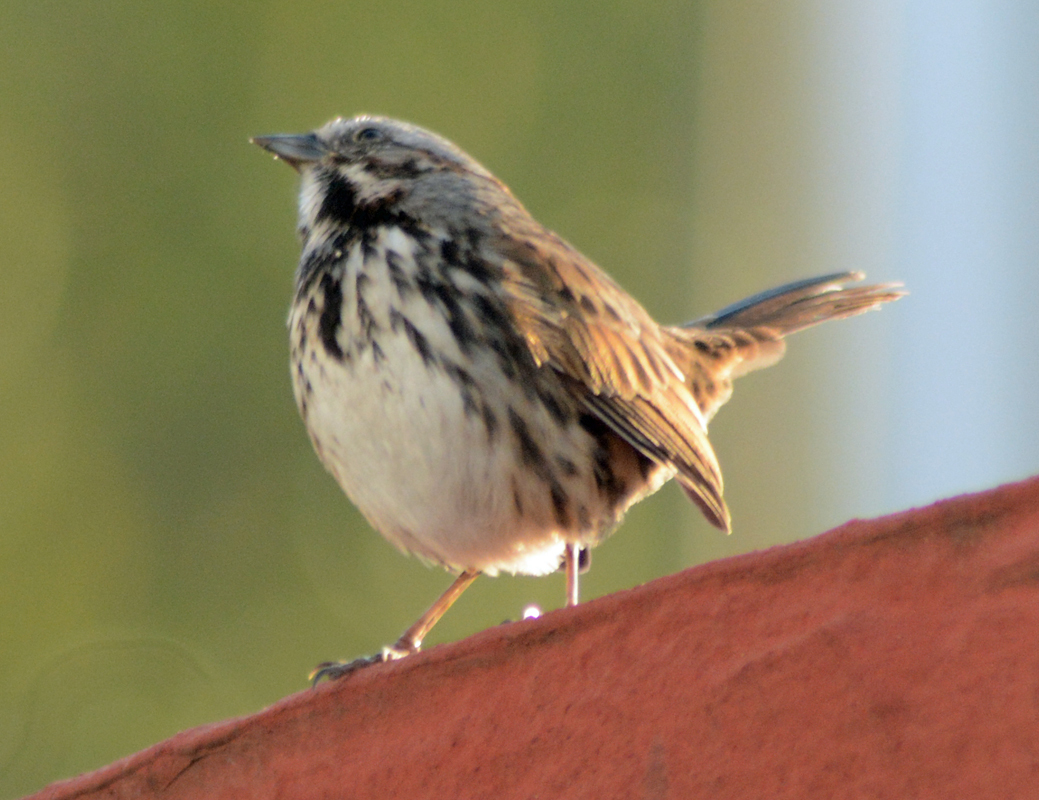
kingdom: Animalia
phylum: Chordata
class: Aves
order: Passeriformes
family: Passerellidae
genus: Melospiza
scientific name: Melospiza melodia
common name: Song sparrow
